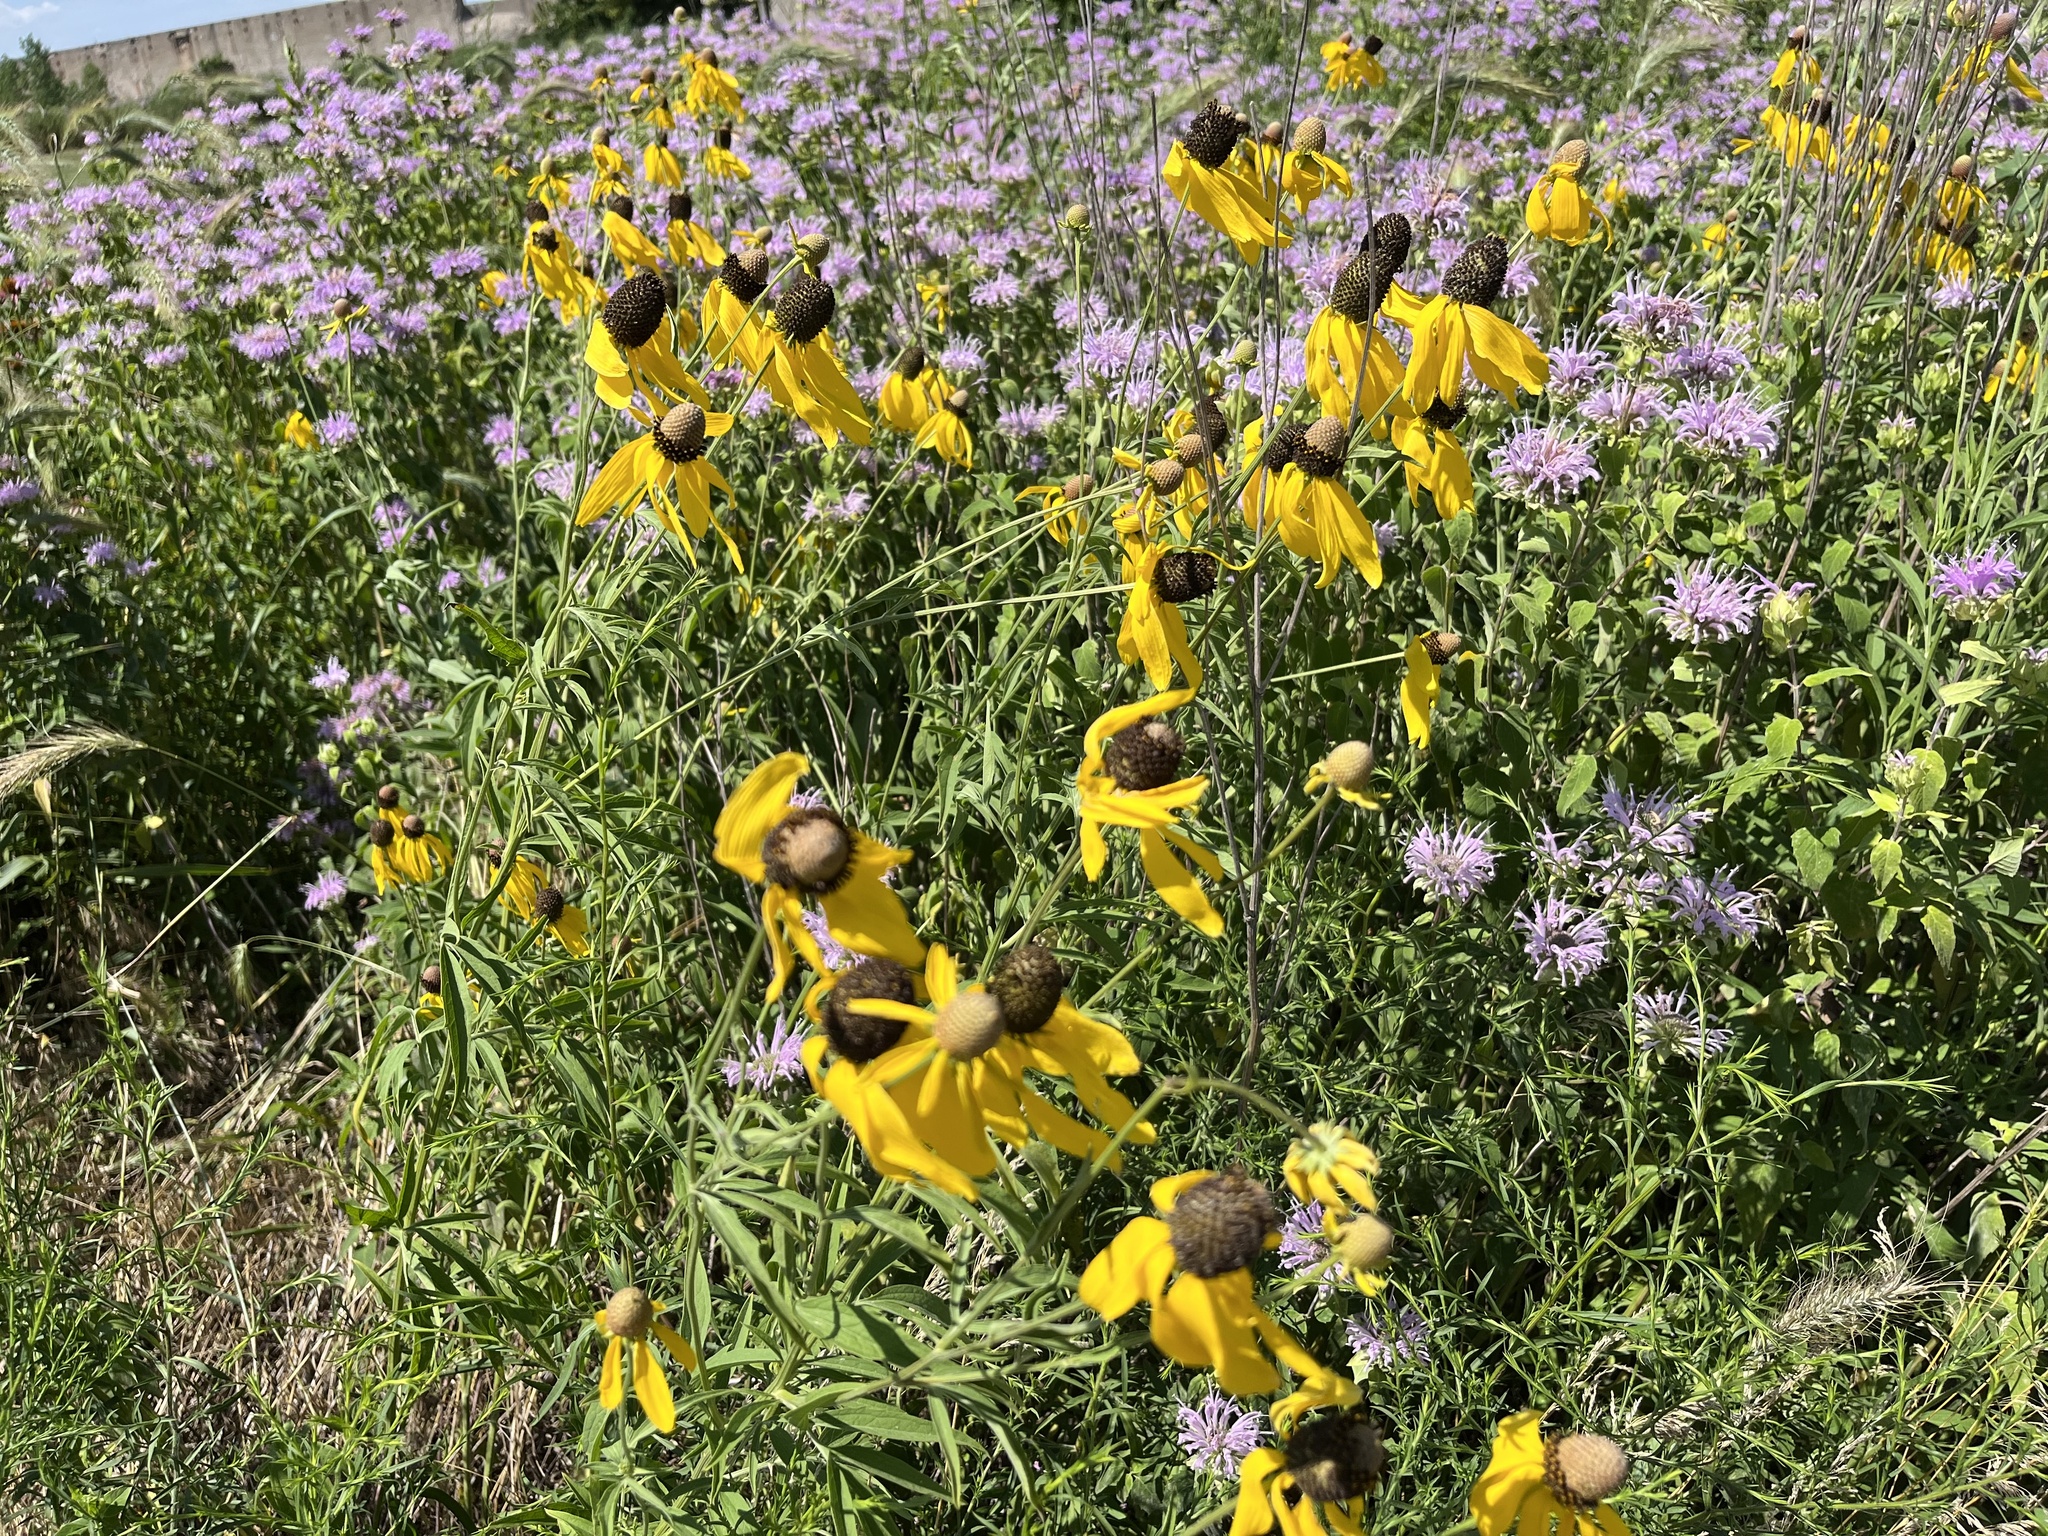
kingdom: Plantae
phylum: Tracheophyta
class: Magnoliopsida
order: Asterales
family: Asteraceae
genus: Ratibida
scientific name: Ratibida pinnata
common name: Drooping prairie-coneflower
